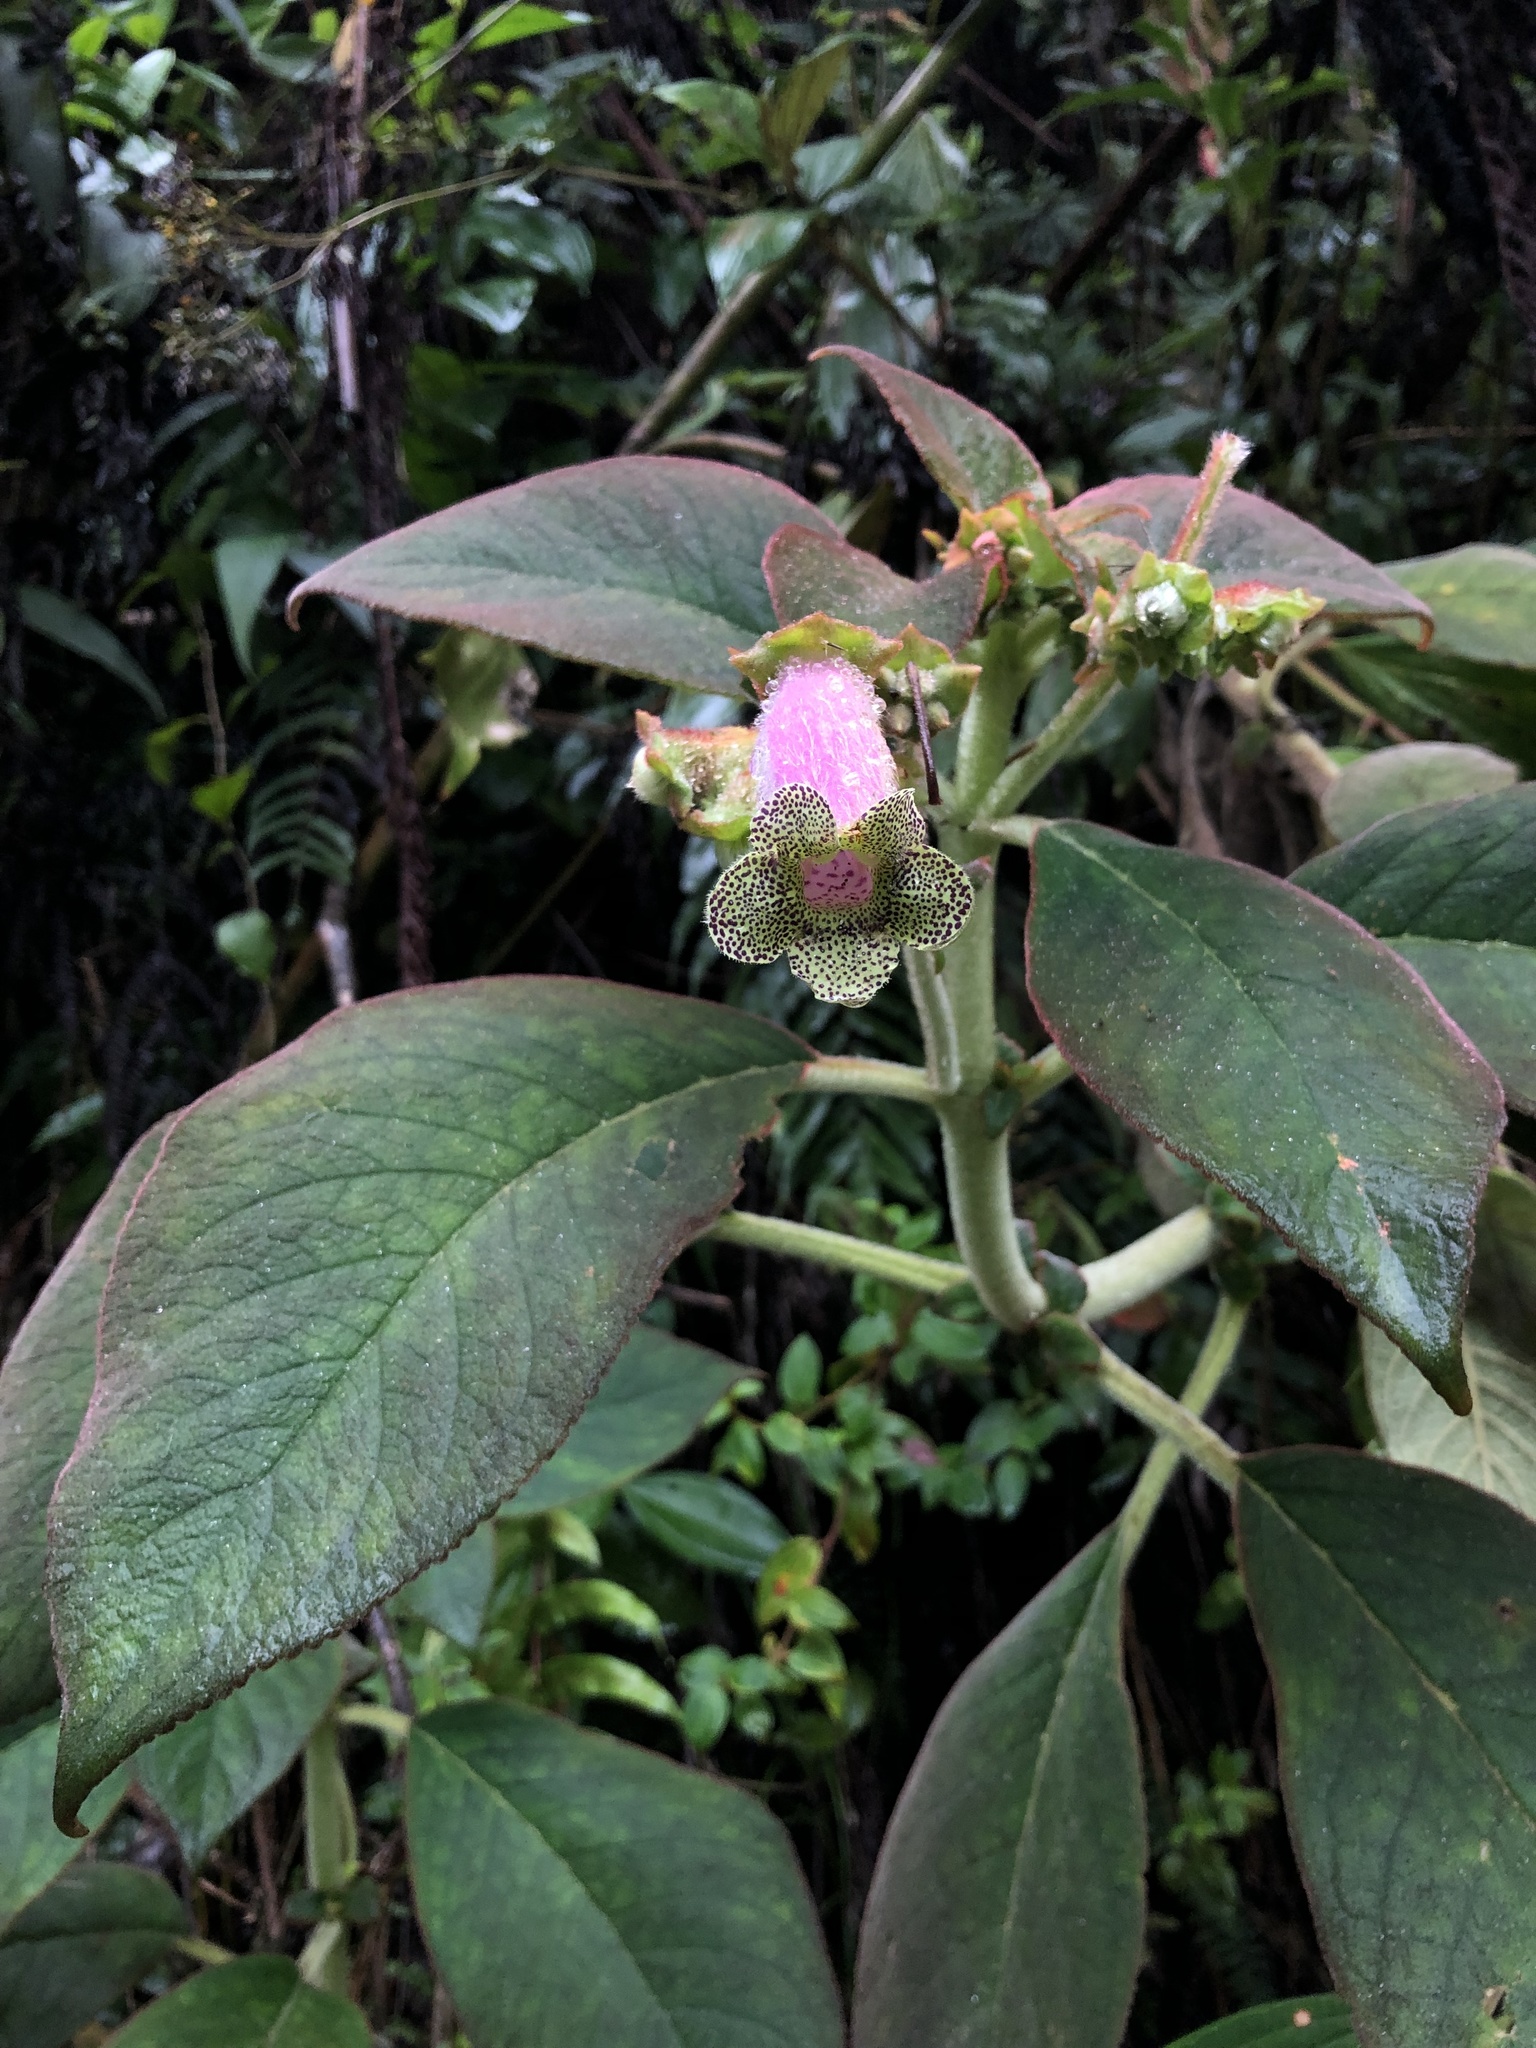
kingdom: Plantae
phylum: Tracheophyta
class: Magnoliopsida
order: Lamiales
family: Gesneriaceae
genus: Kohleria
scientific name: Kohleria warszewiczii
